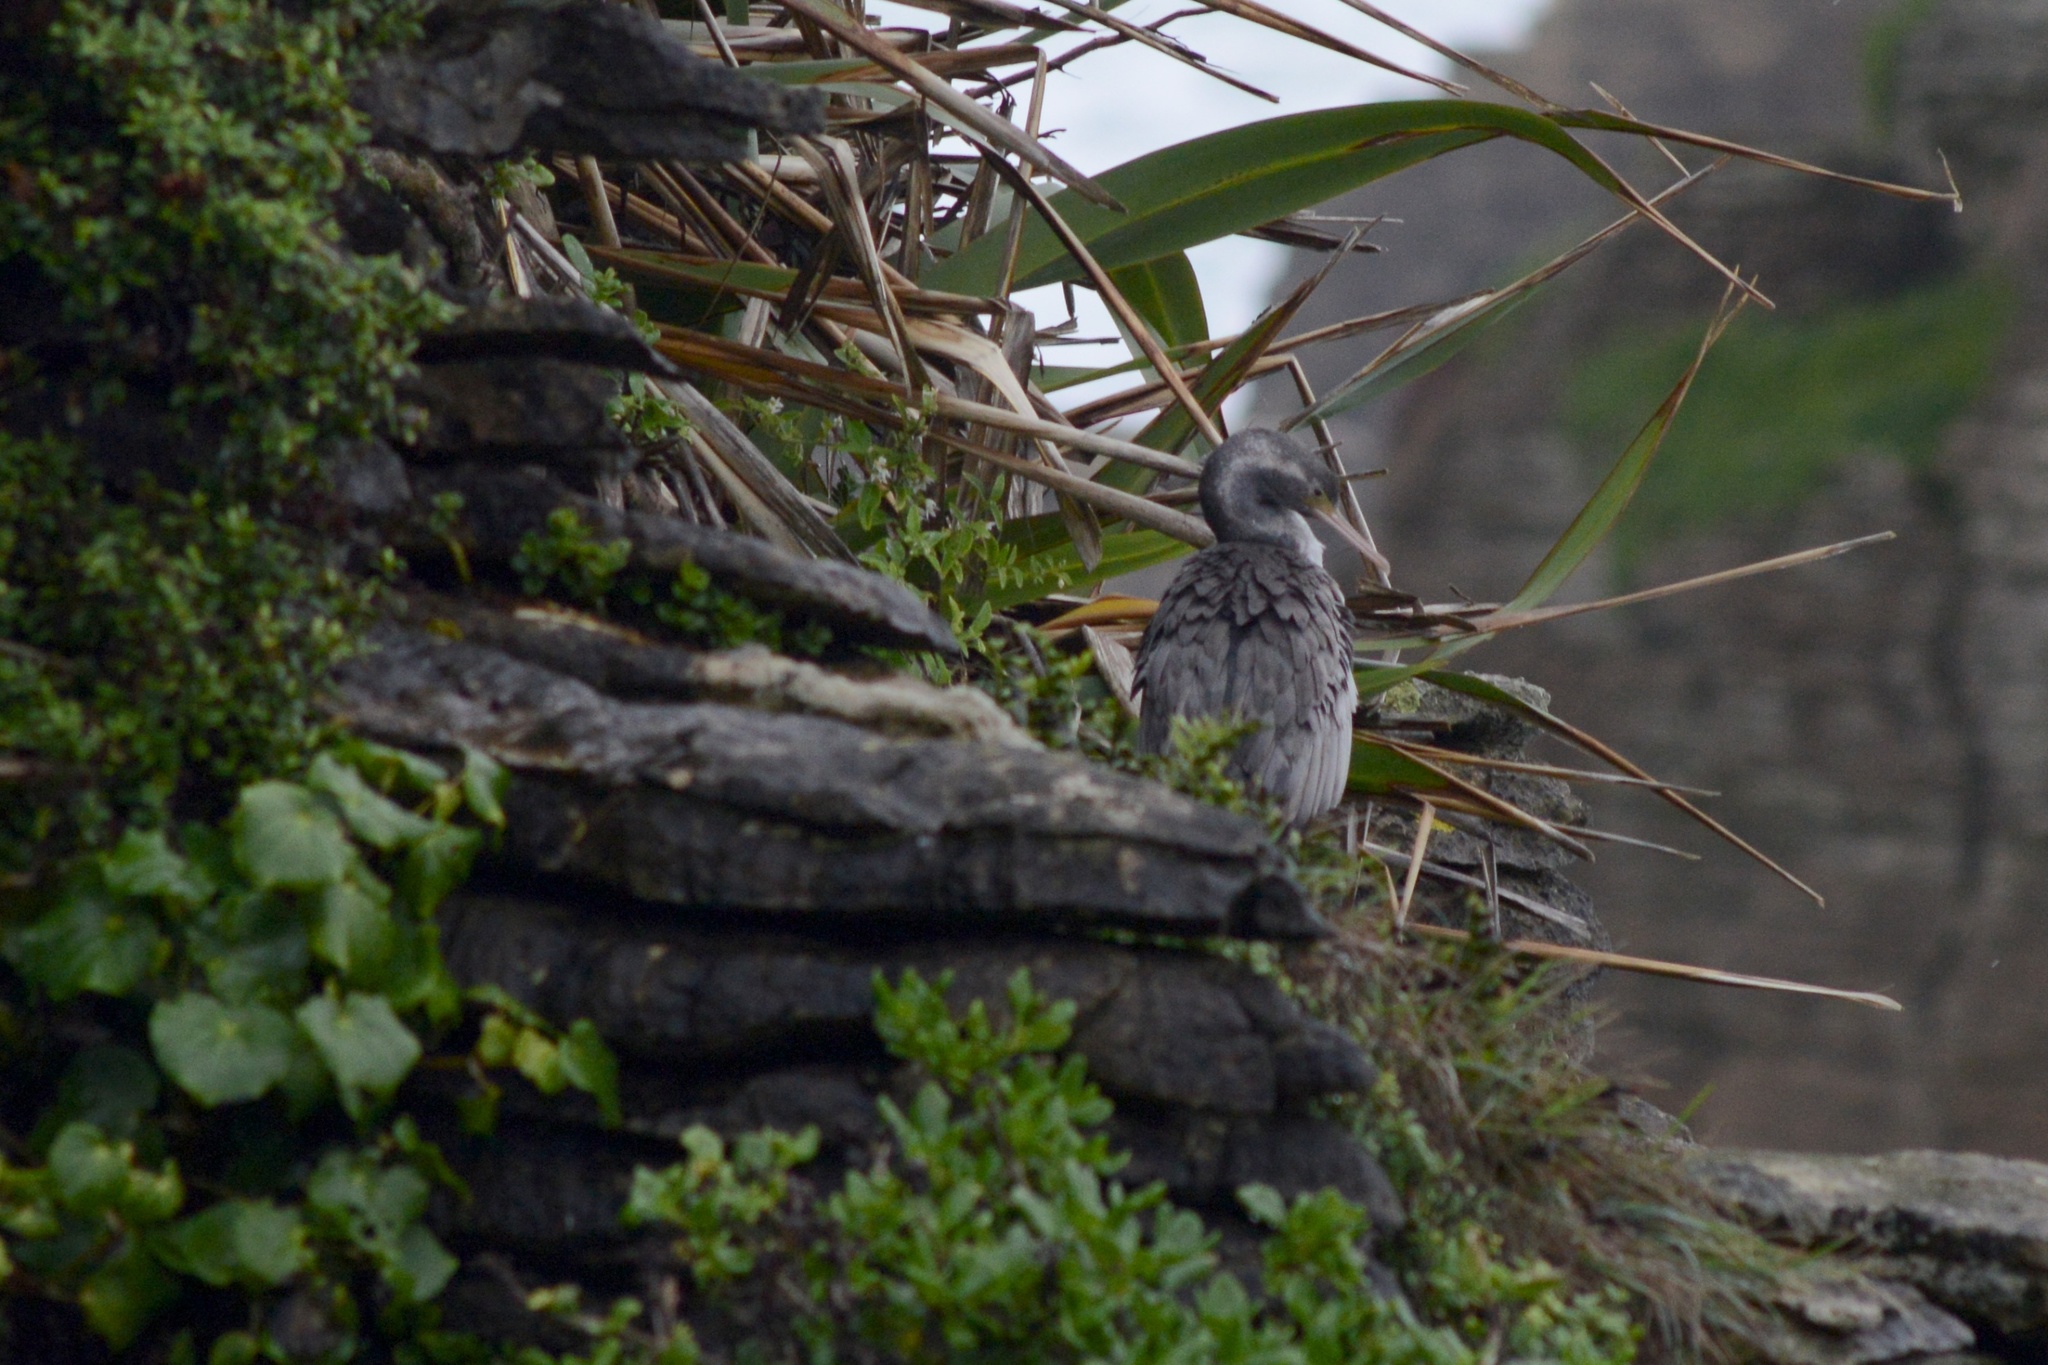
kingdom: Animalia
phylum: Chordata
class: Aves
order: Suliformes
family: Phalacrocoracidae
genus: Phalacrocorax
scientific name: Phalacrocorax punctatus
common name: Spotted shag
